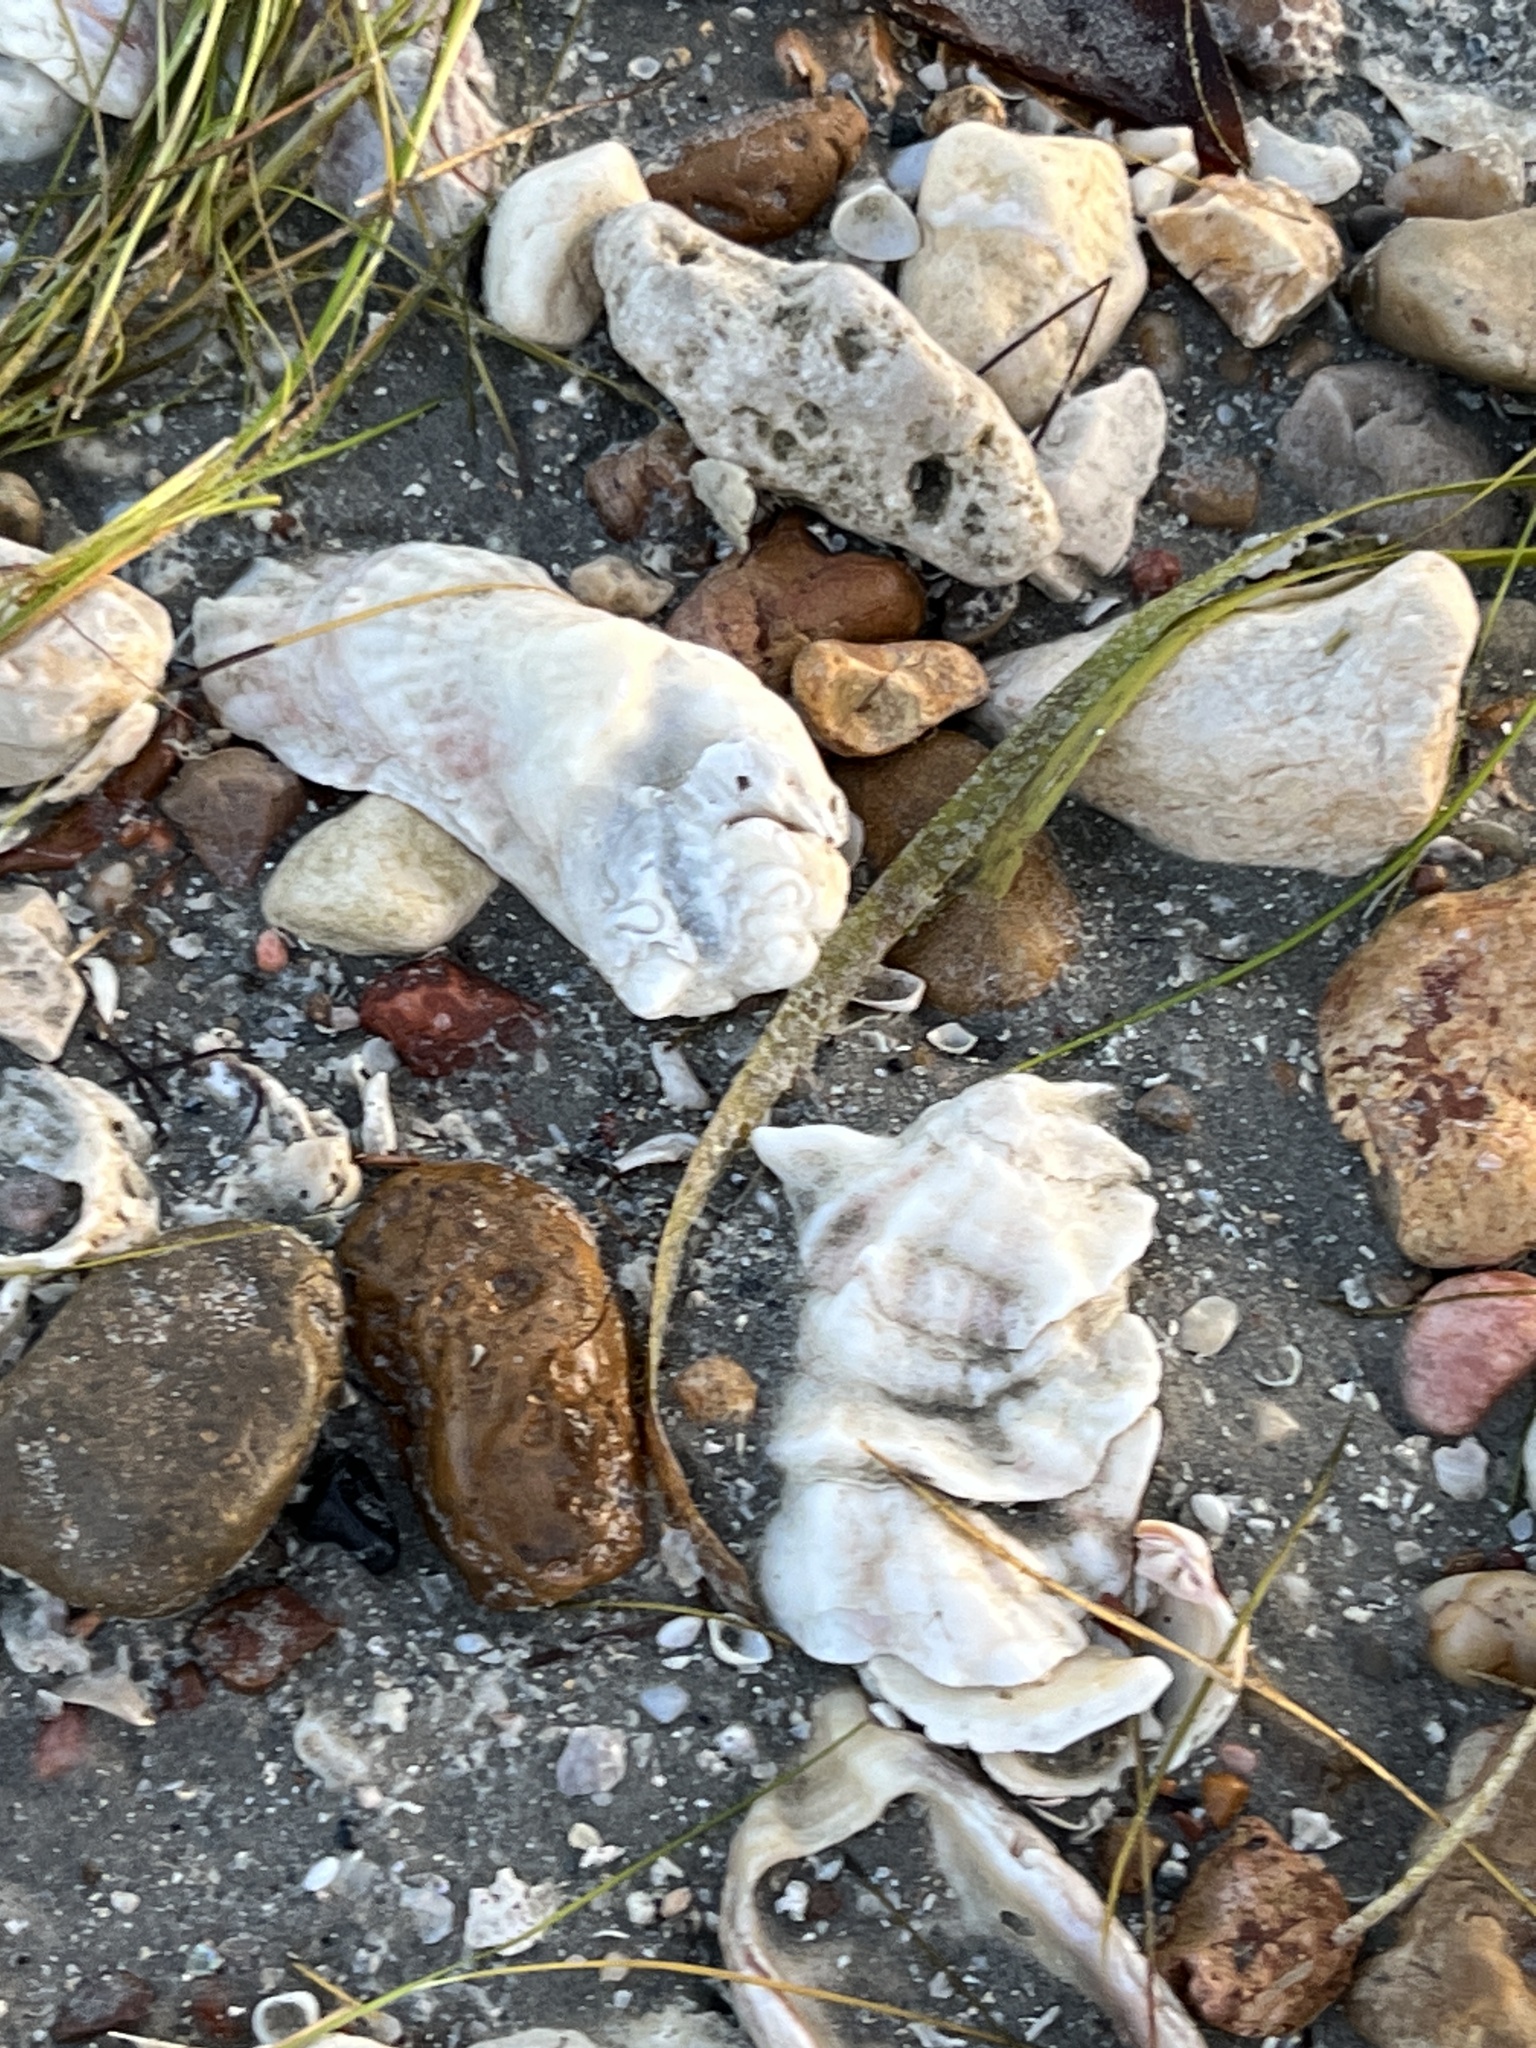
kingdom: Animalia
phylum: Mollusca
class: Bivalvia
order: Ostreida
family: Ostreidae
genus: Crassostrea
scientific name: Crassostrea virginica
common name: American oyster
